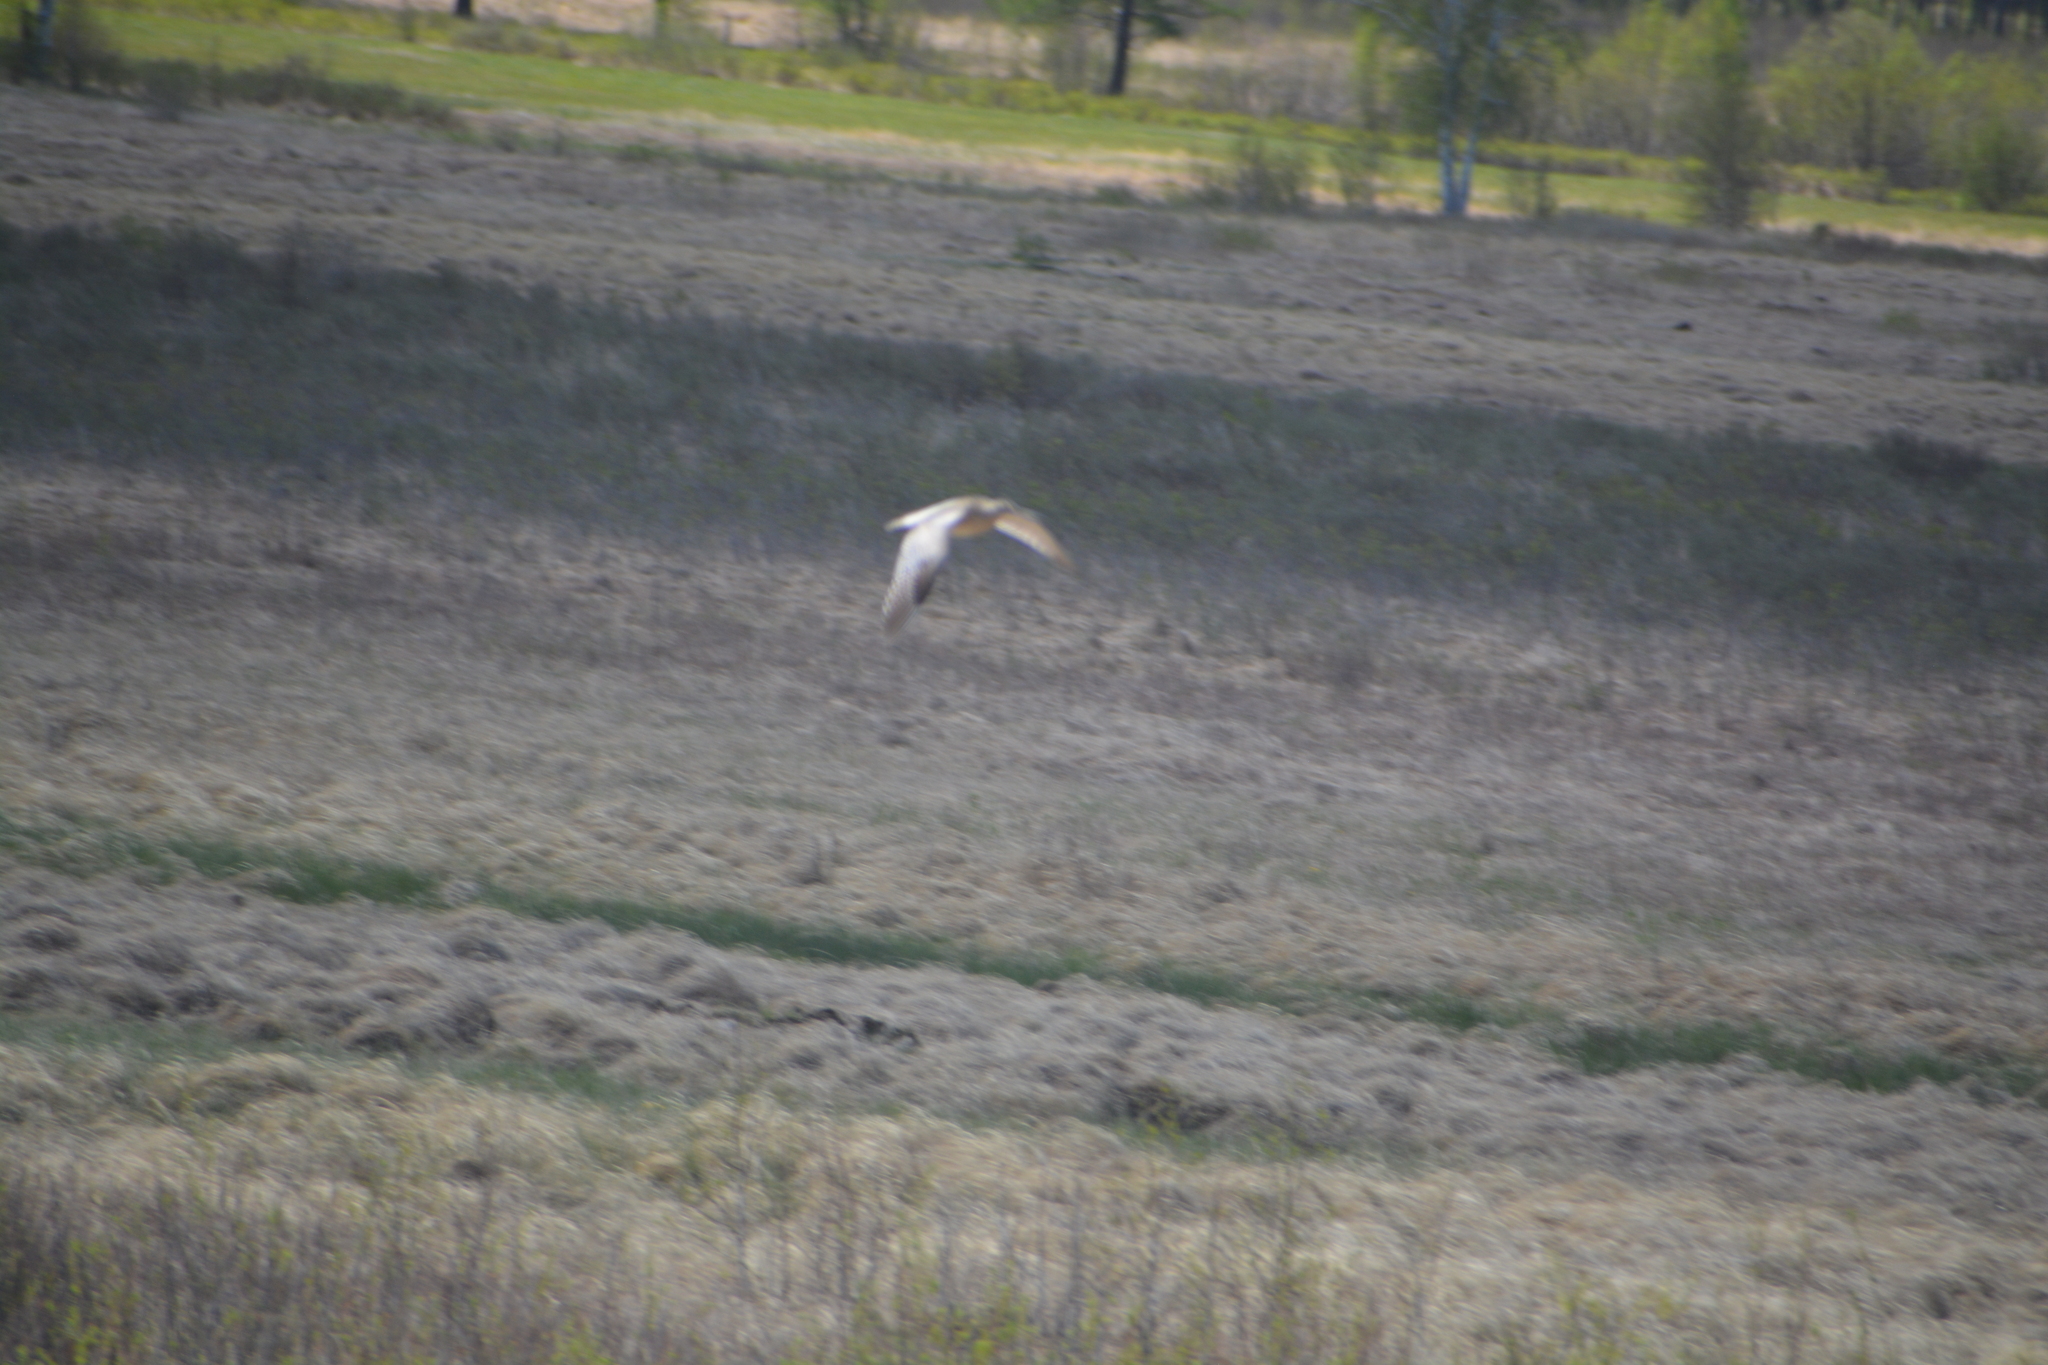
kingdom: Animalia
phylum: Chordata
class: Aves
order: Charadriiformes
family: Scolopacidae
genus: Numenius
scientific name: Numenius arquata
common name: Eurasian curlew
